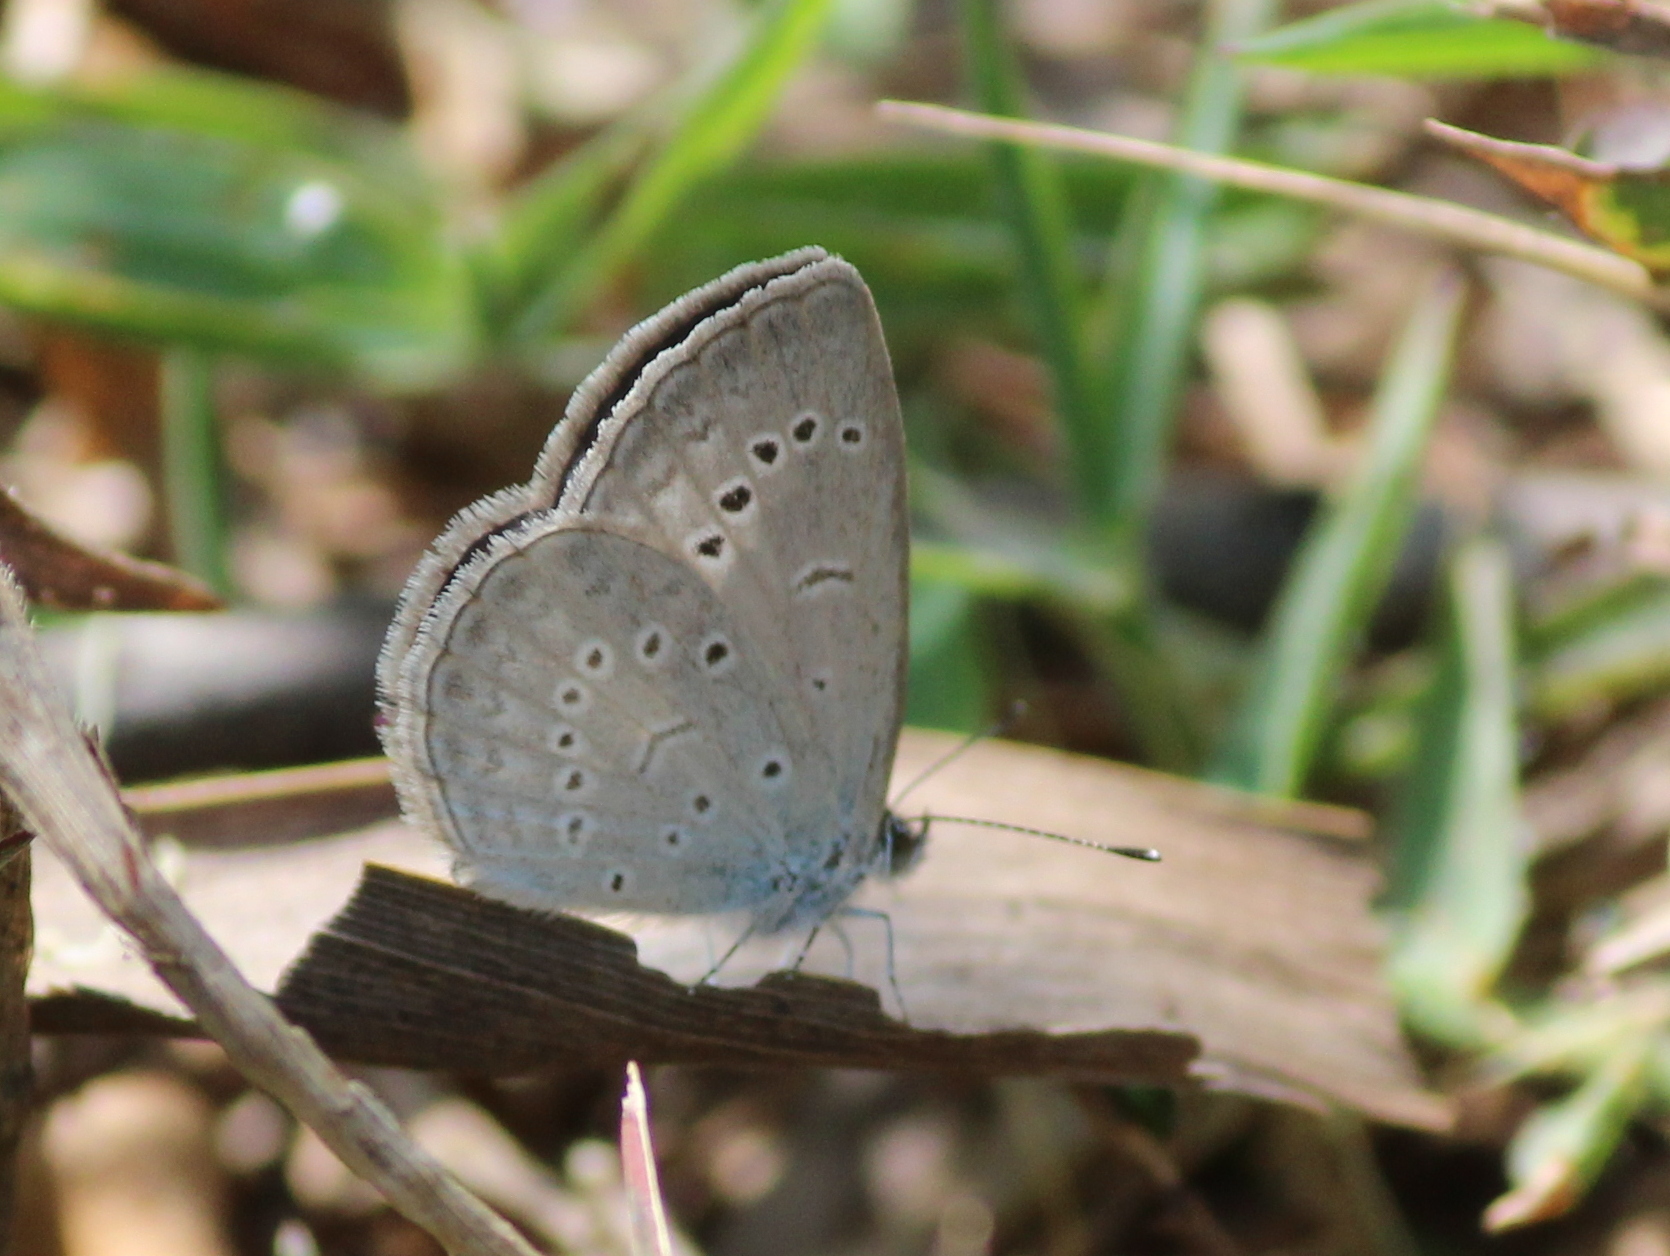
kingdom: Animalia
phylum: Arthropoda
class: Insecta
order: Lepidoptera
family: Lycaenidae
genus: Pseudozizeeria
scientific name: Pseudozizeeria maha
